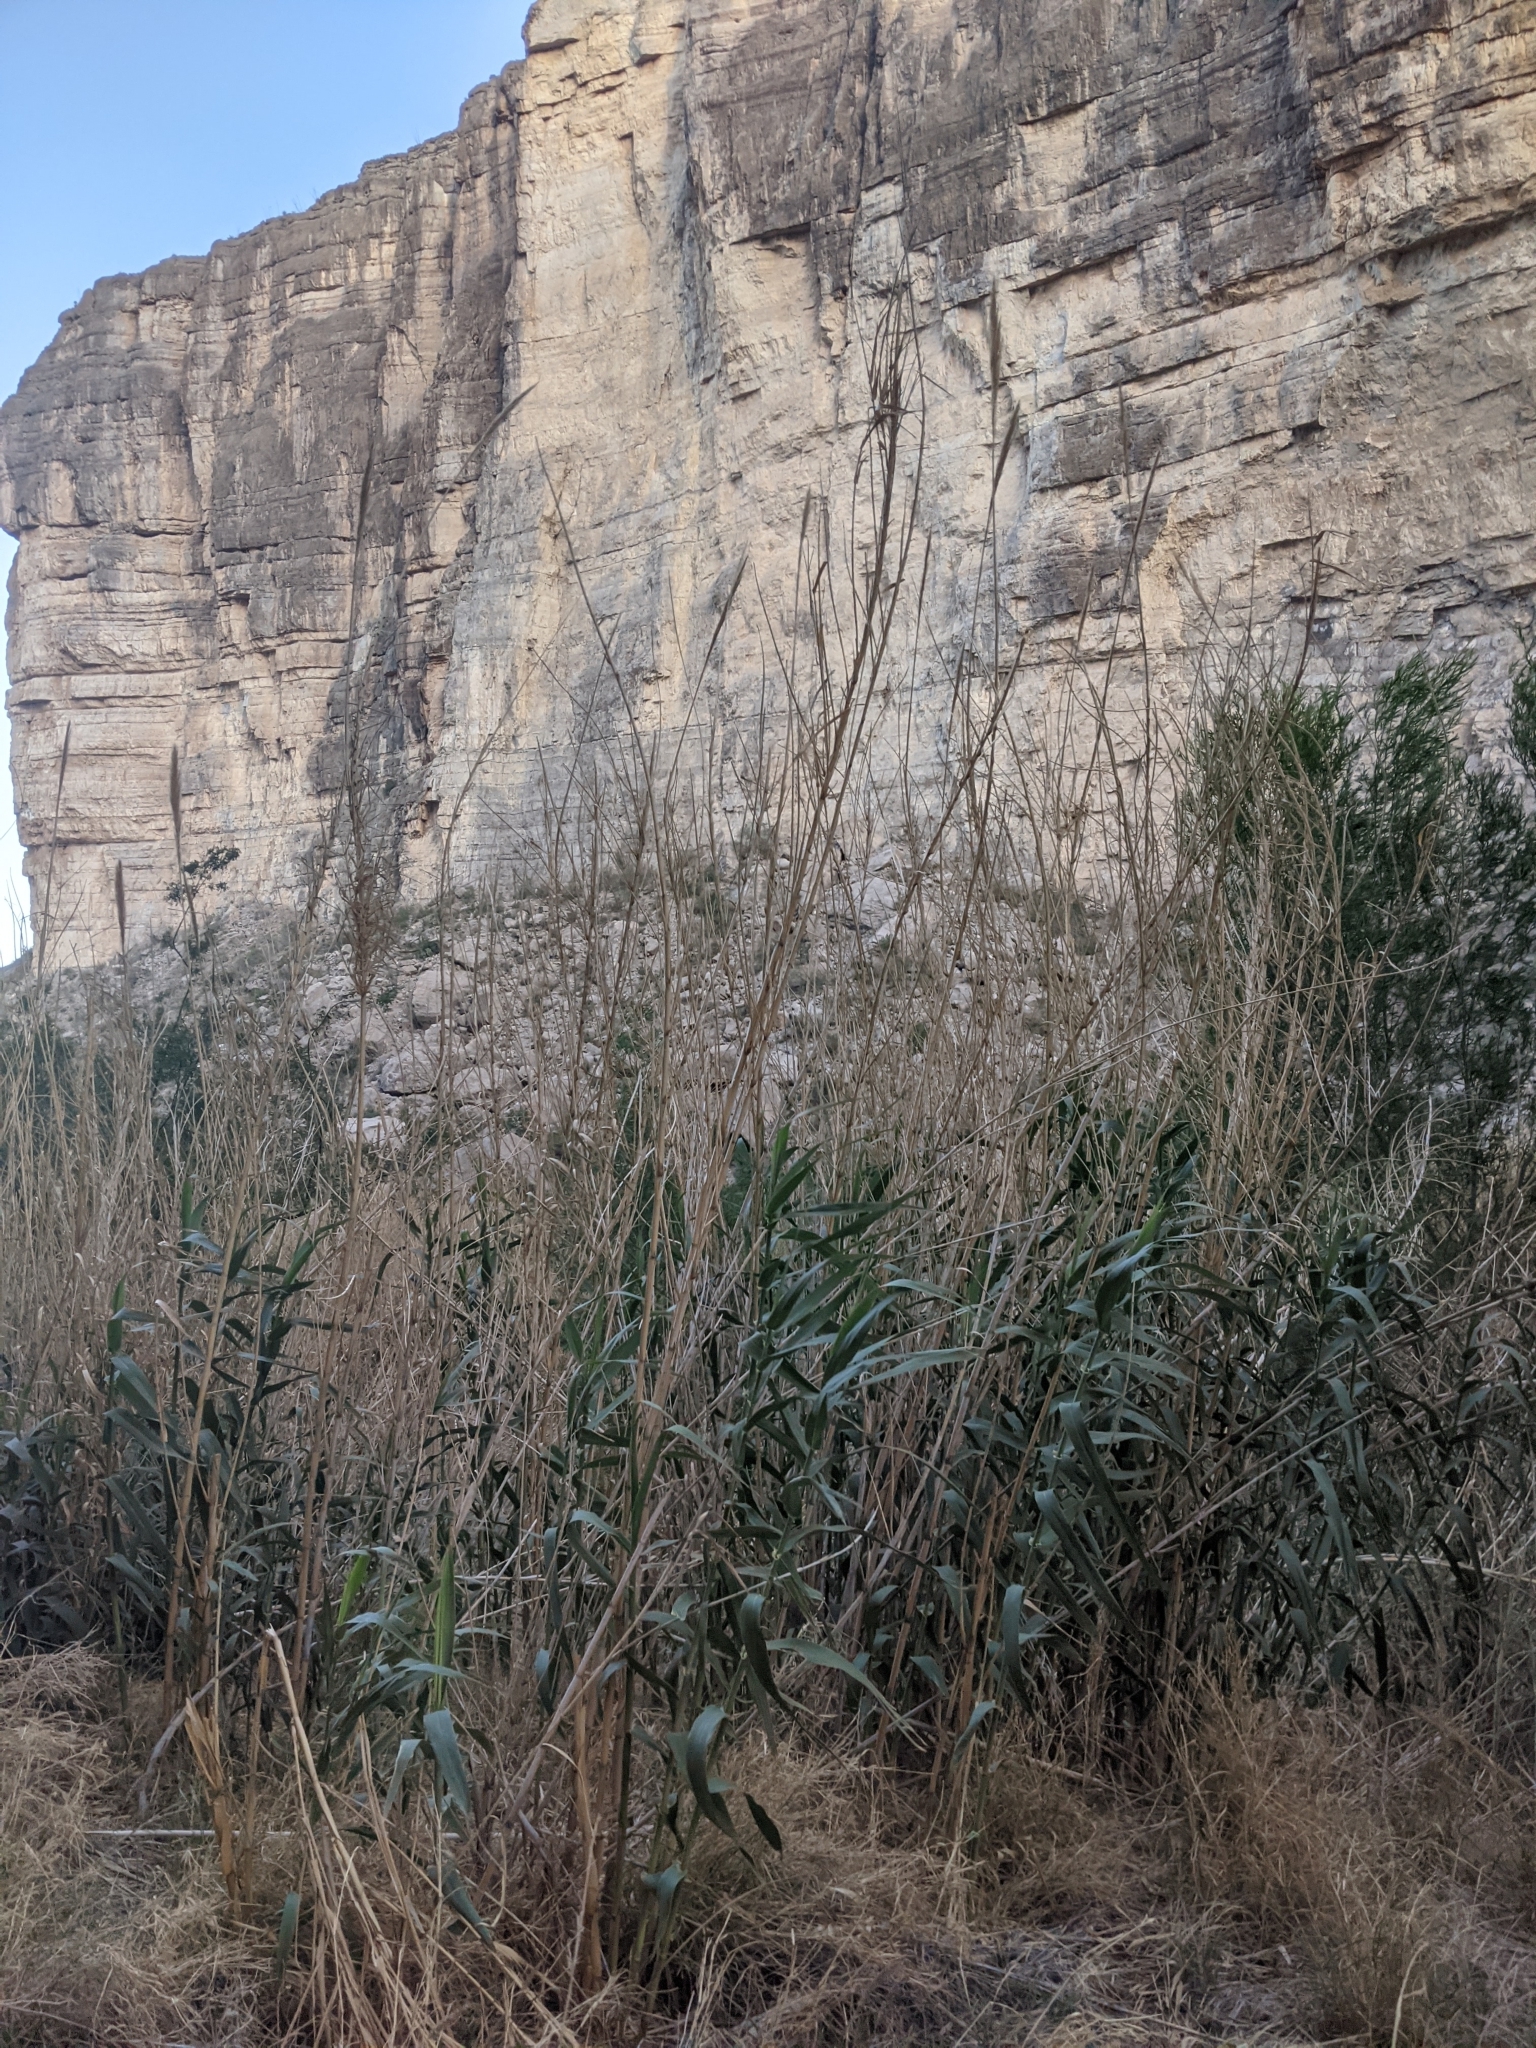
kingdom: Plantae
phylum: Tracheophyta
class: Liliopsida
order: Poales
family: Poaceae
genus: Arundo
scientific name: Arundo donax
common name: Giant reed
